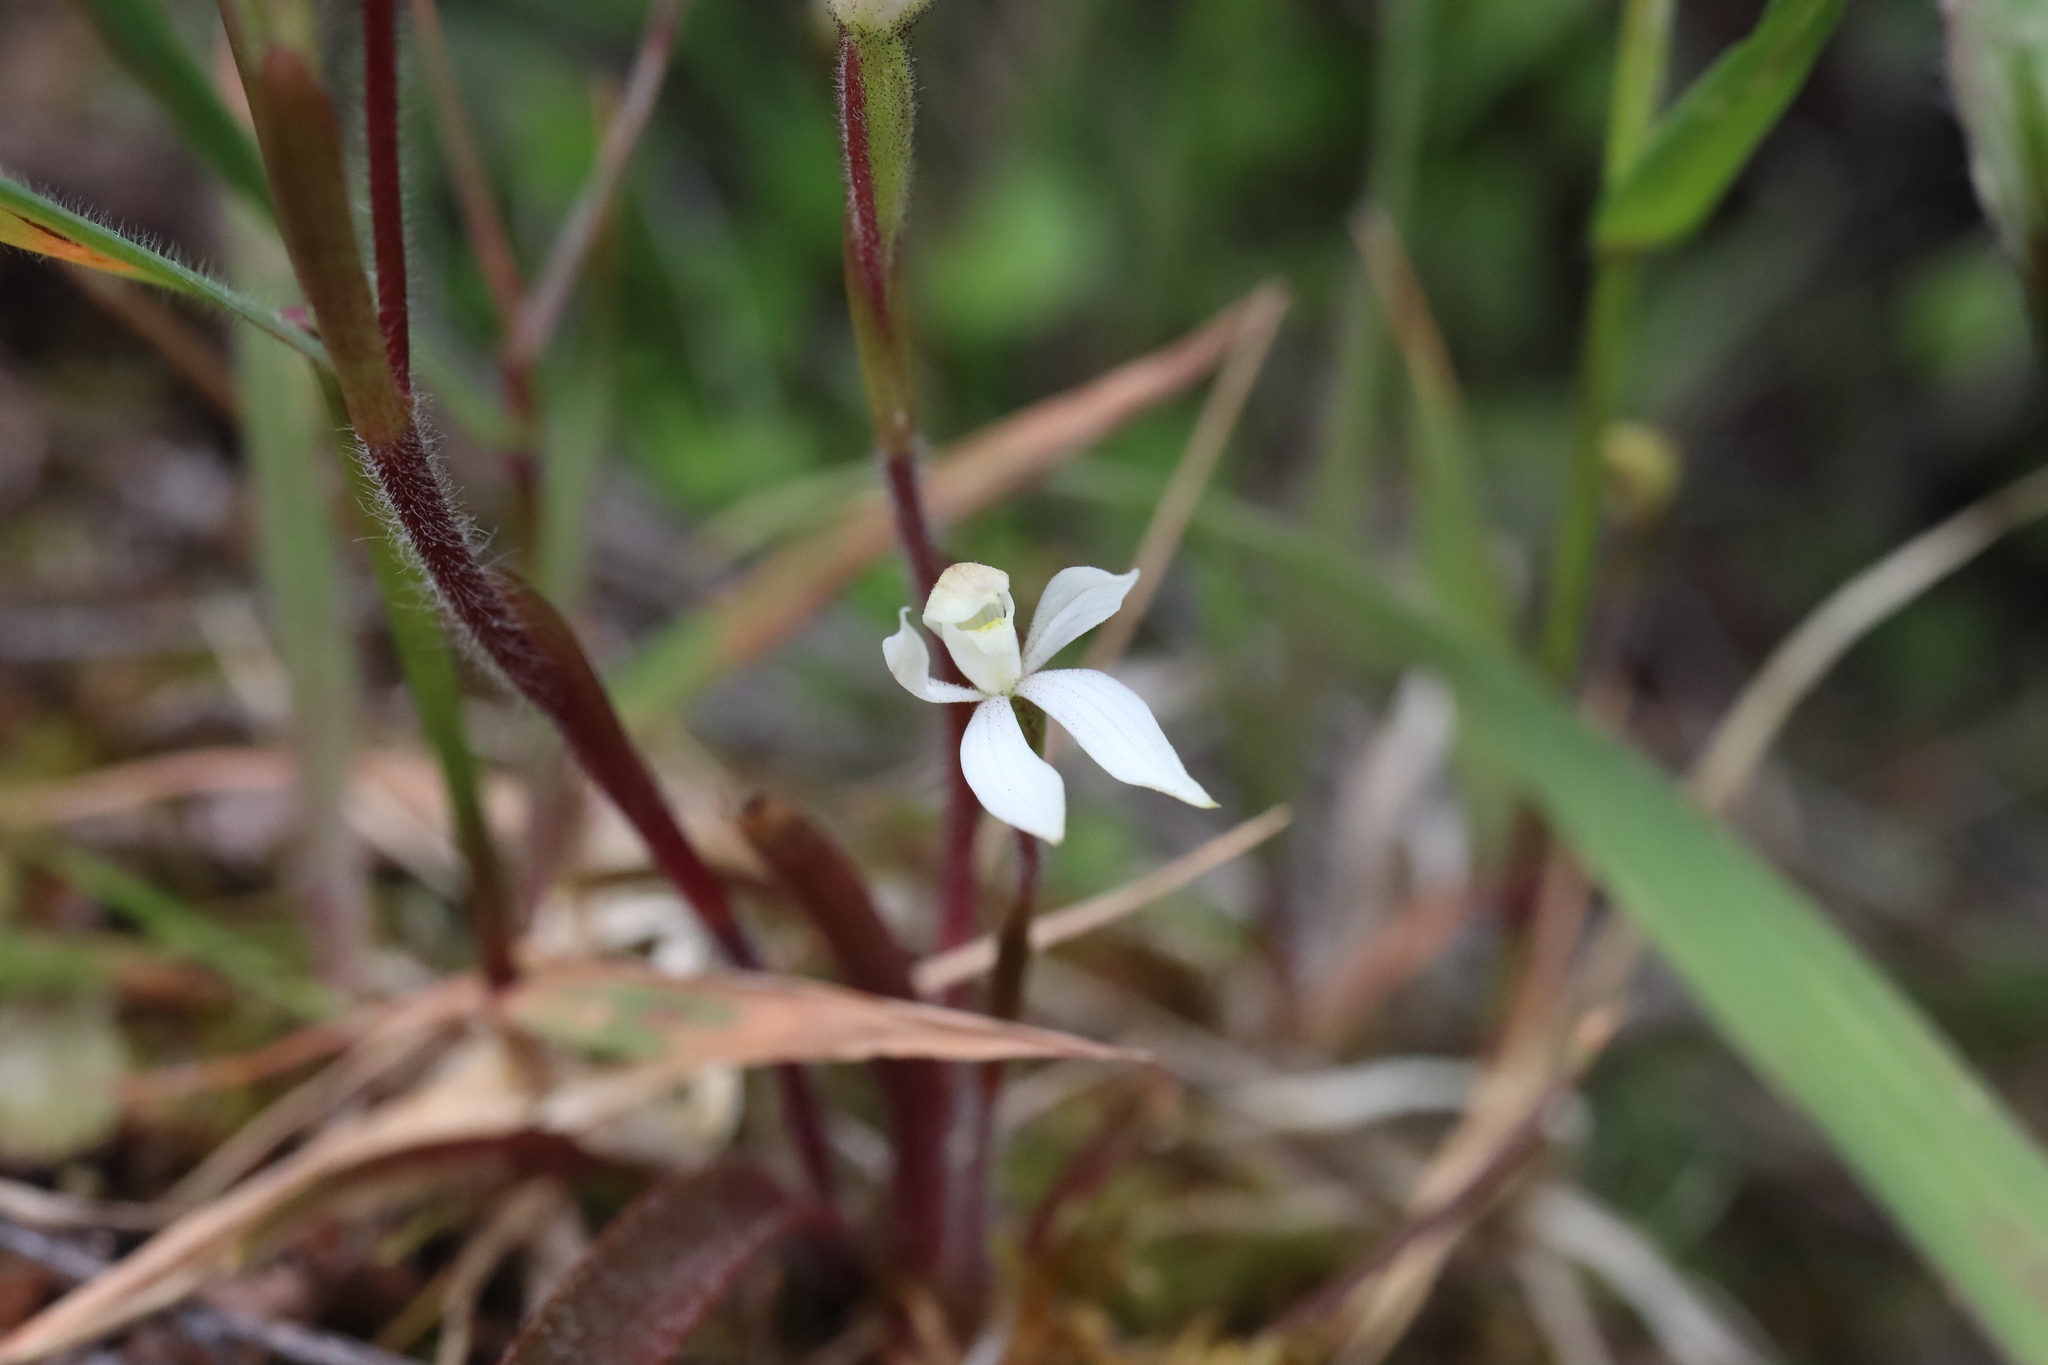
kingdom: Plantae
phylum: Tracheophyta
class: Liliopsida
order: Asparagales
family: Orchidaceae
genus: Caladenia
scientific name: Caladenia lyallii
